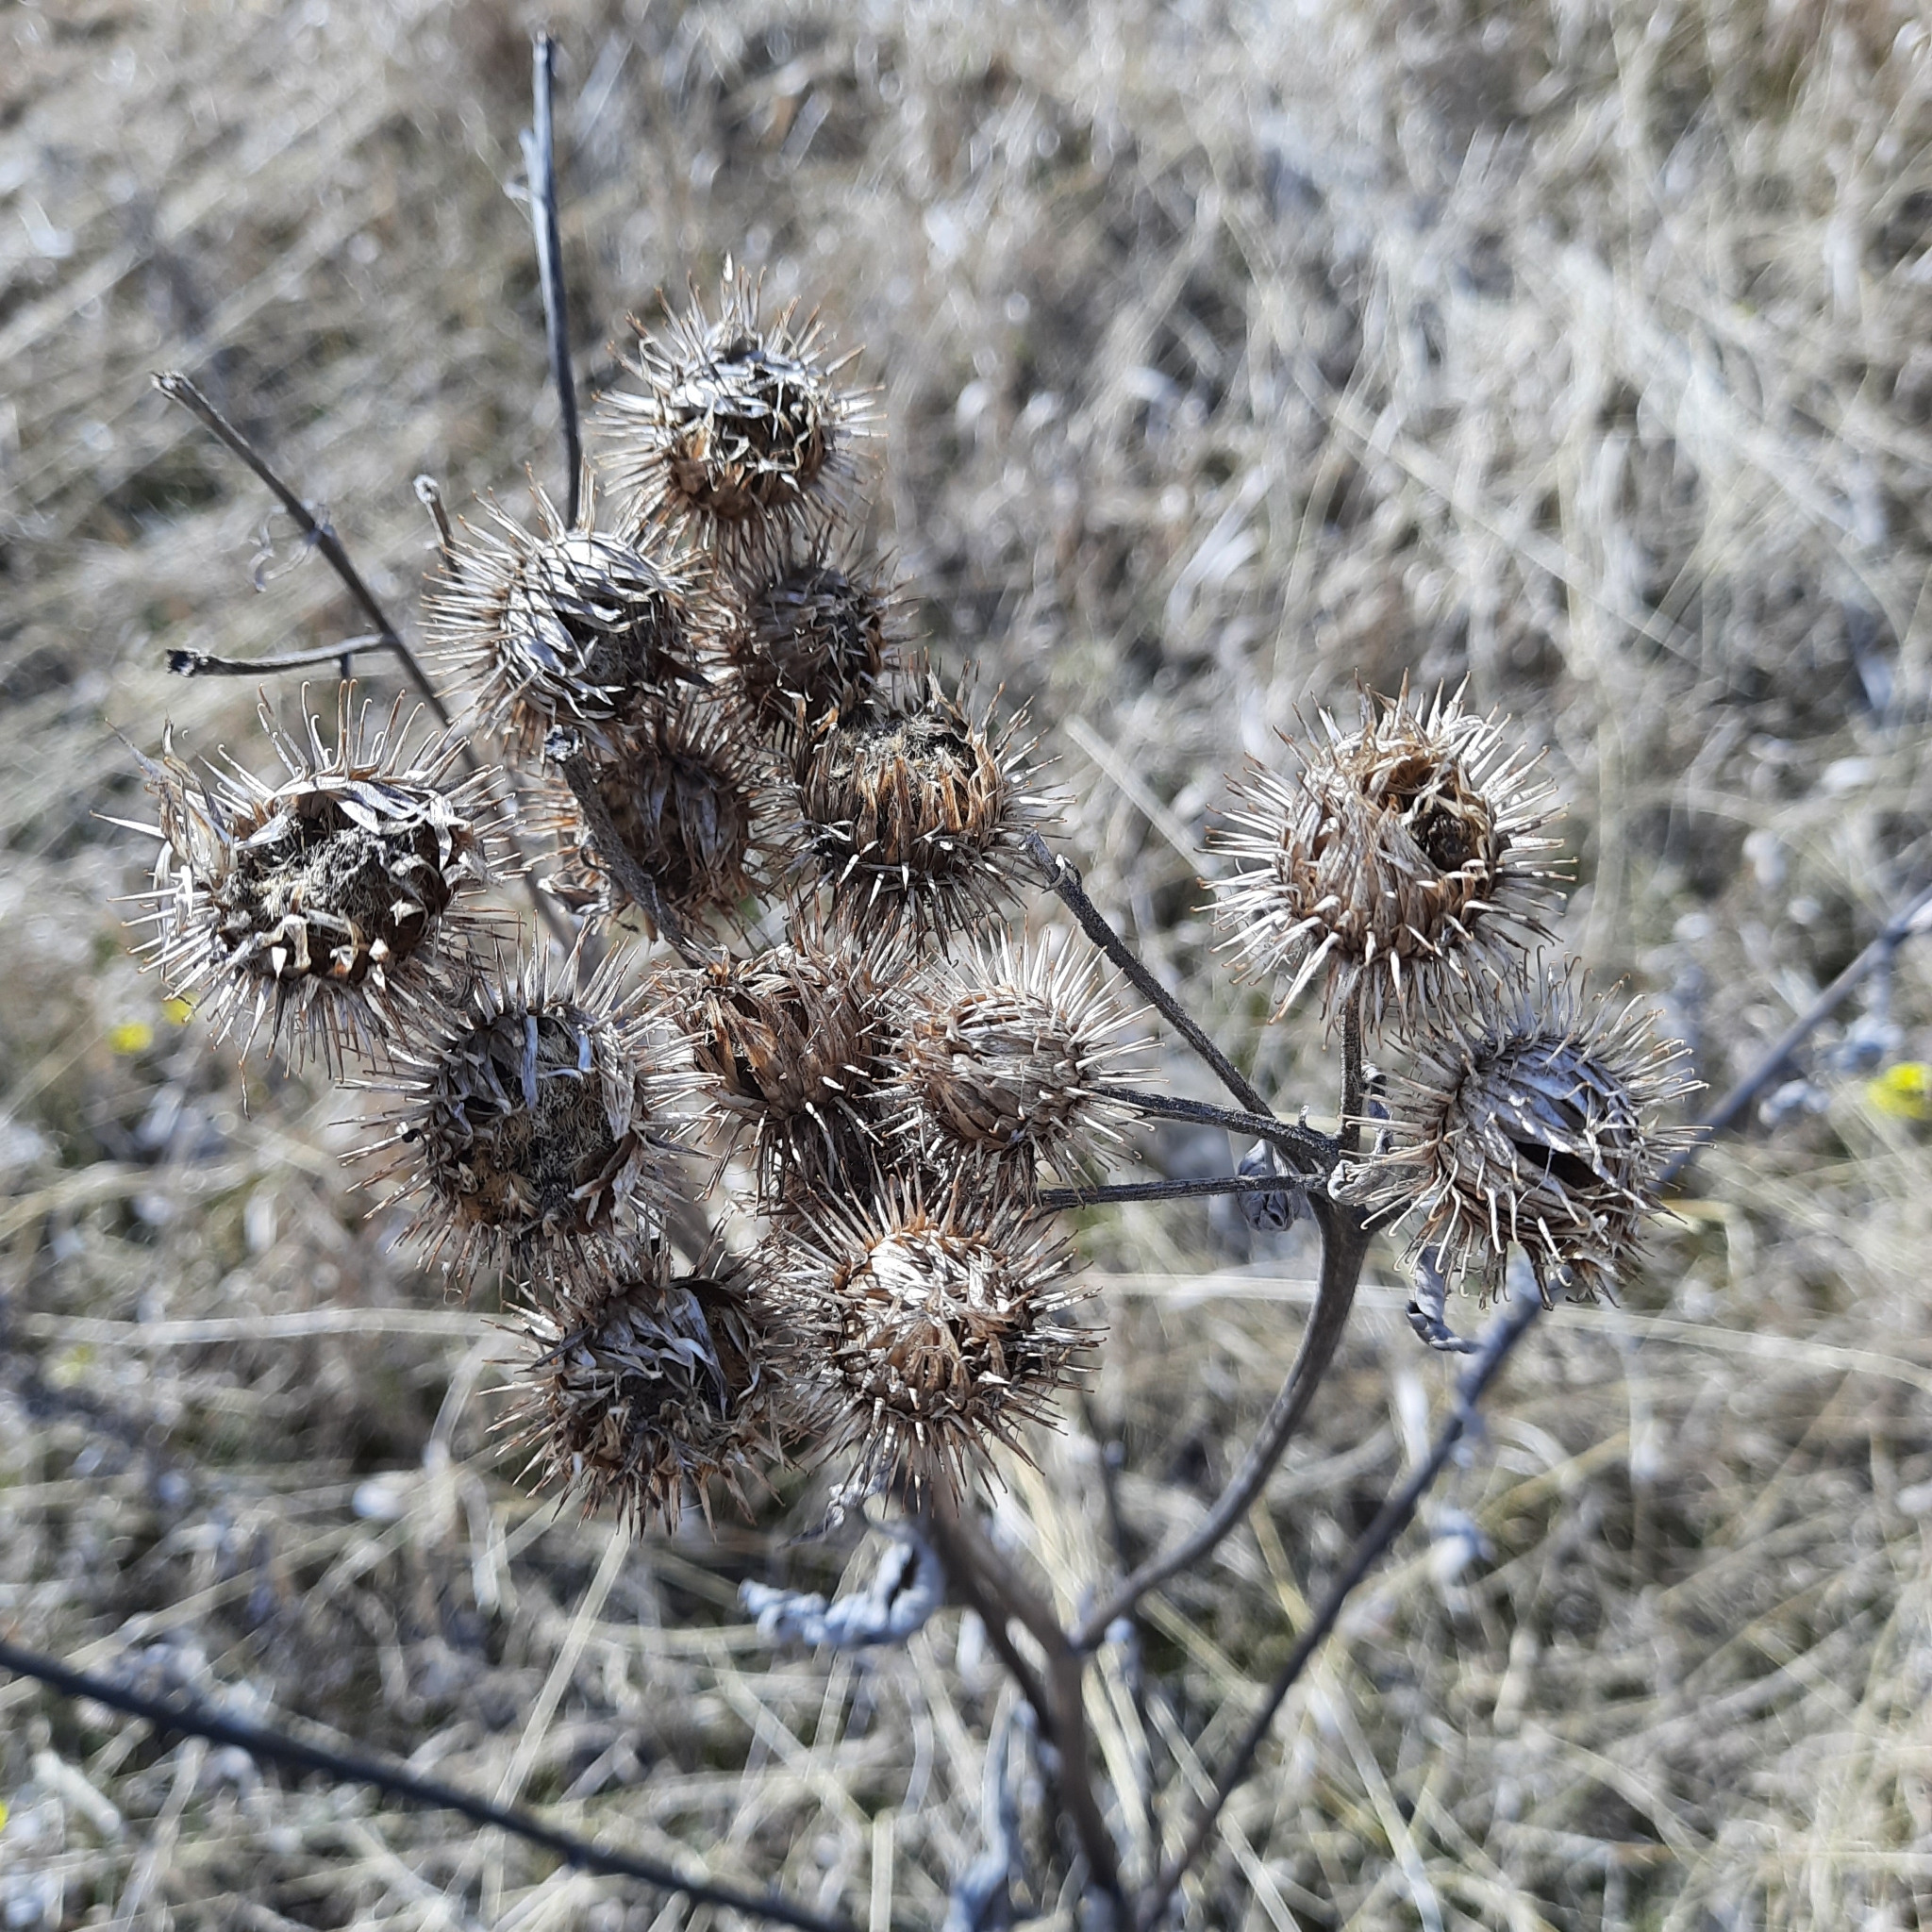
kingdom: Plantae
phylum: Tracheophyta
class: Magnoliopsida
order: Asterales
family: Asteraceae
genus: Arctium
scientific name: Arctium tomentosum
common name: Woolly burdock
